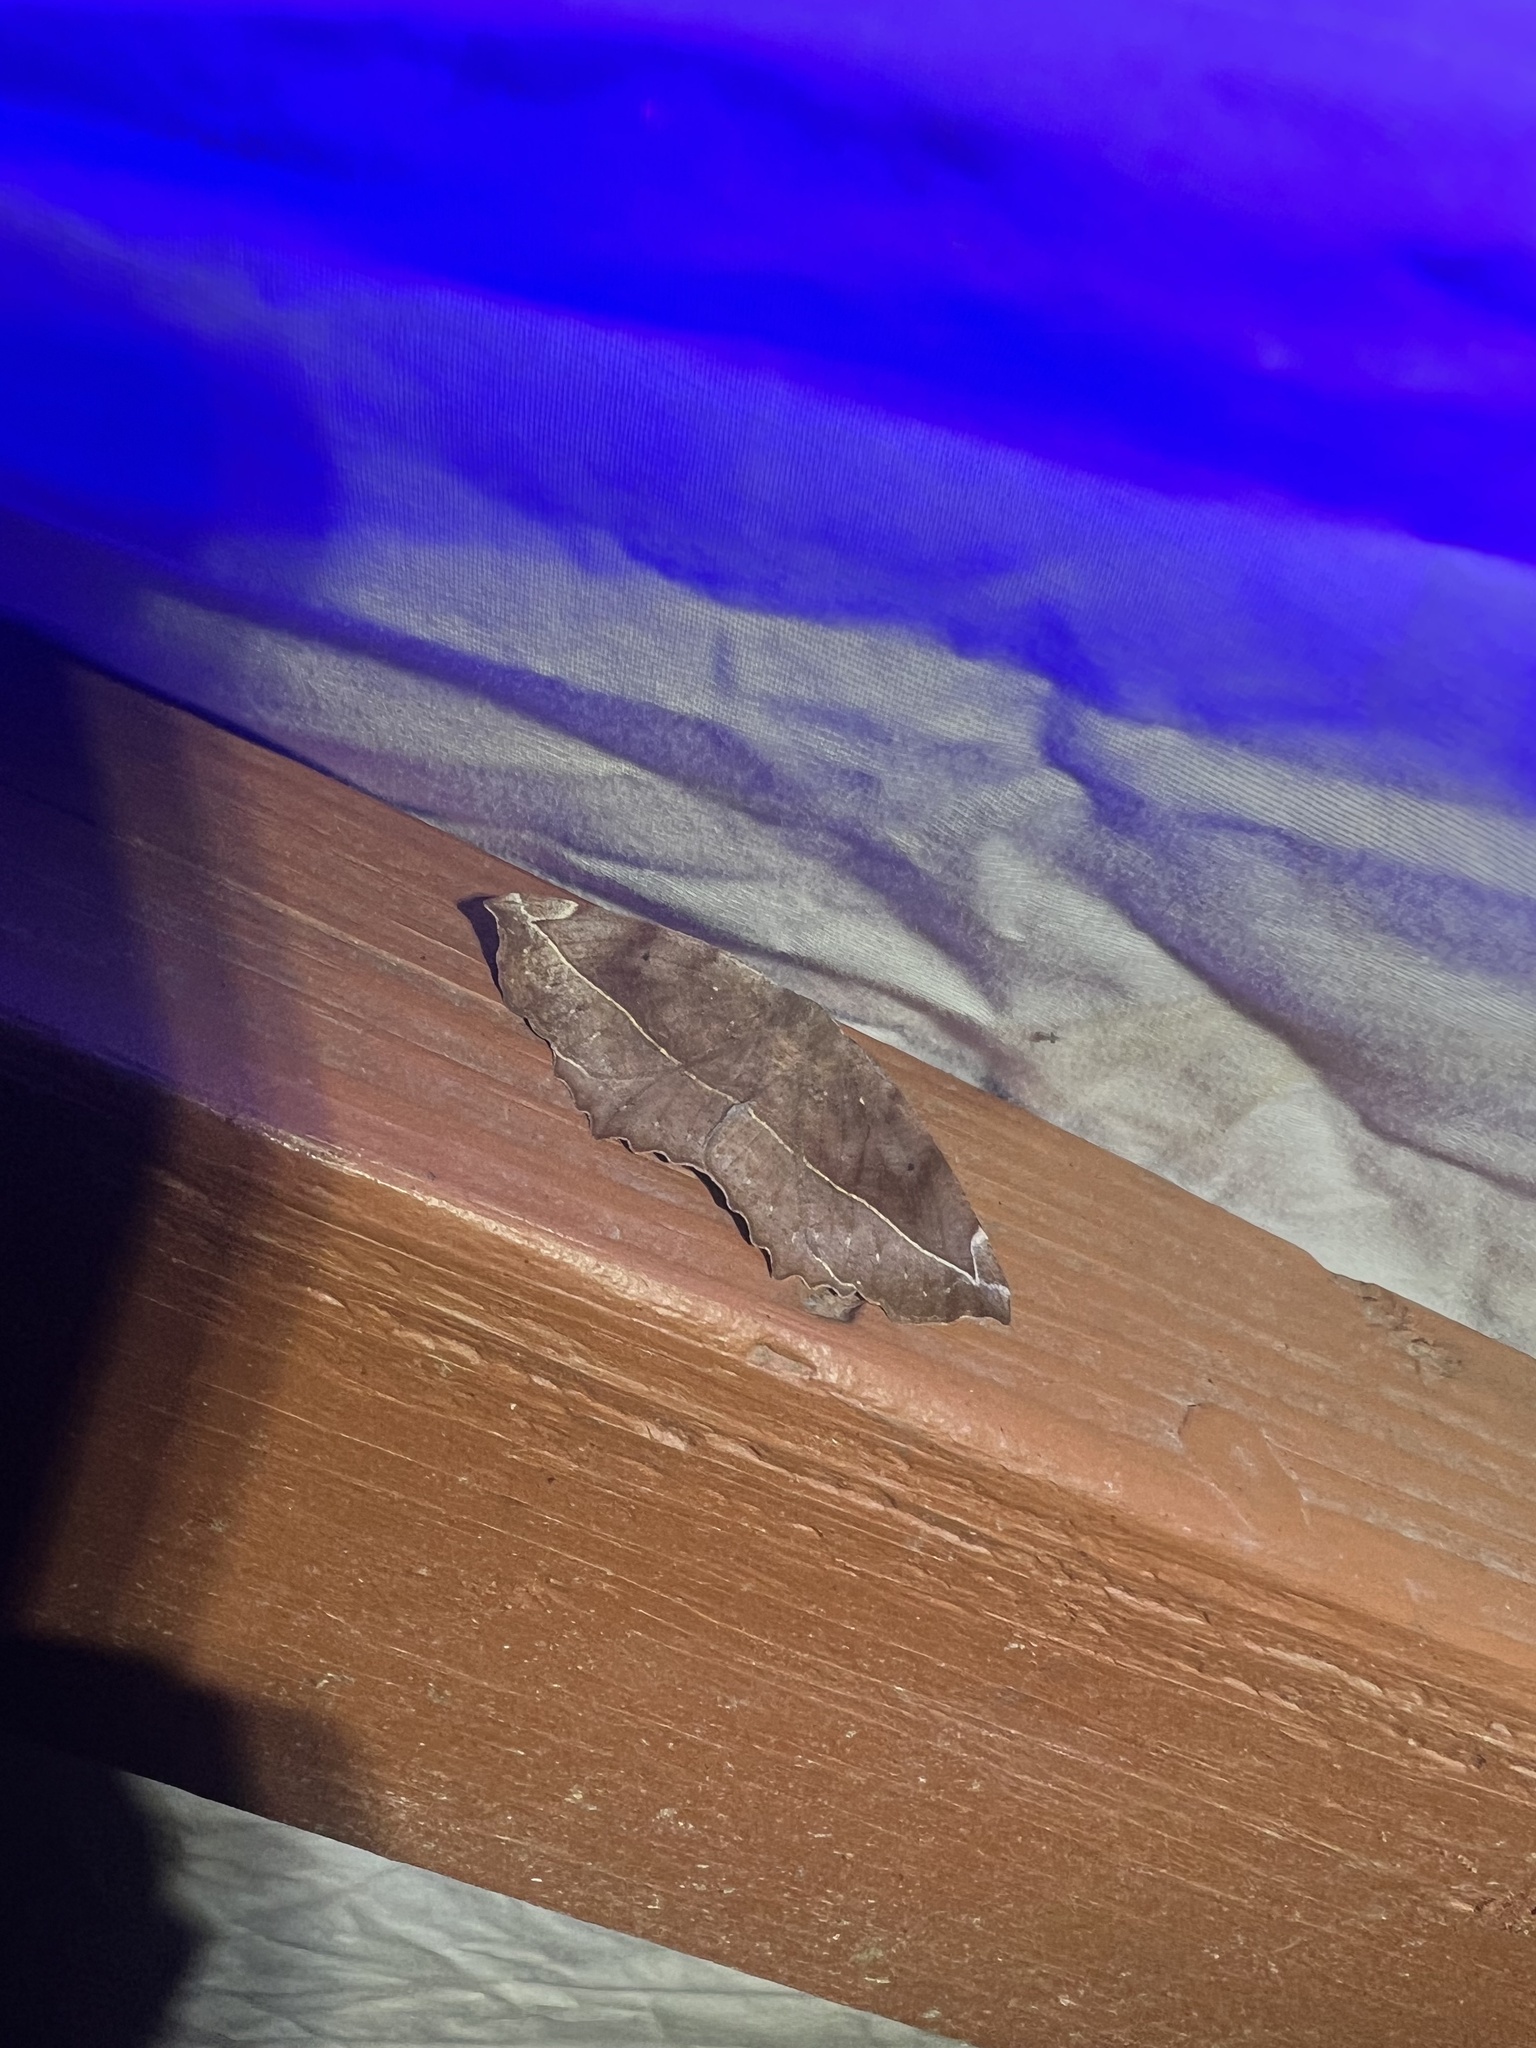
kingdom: Animalia
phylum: Arthropoda
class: Insecta
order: Lepidoptera
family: Geometridae
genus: Eutrapela
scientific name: Eutrapela clemataria
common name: Curved-toothed geometer
